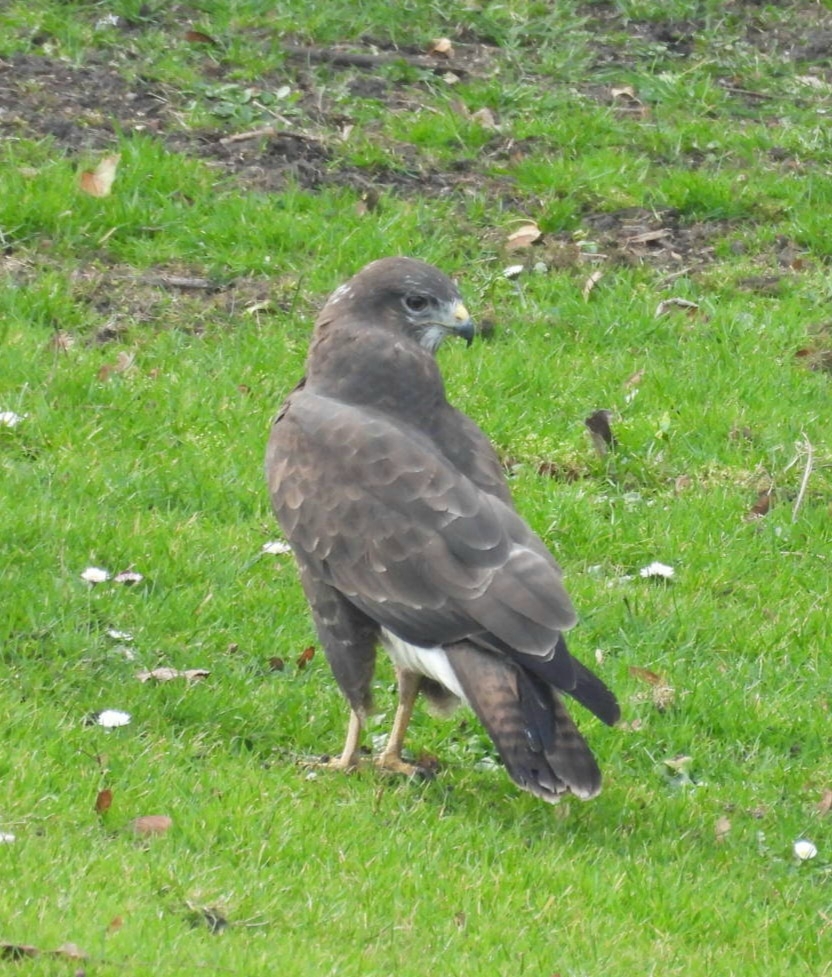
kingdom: Animalia
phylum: Chordata
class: Aves
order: Accipitriformes
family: Accipitridae
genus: Buteo
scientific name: Buteo buteo
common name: Common buzzard
